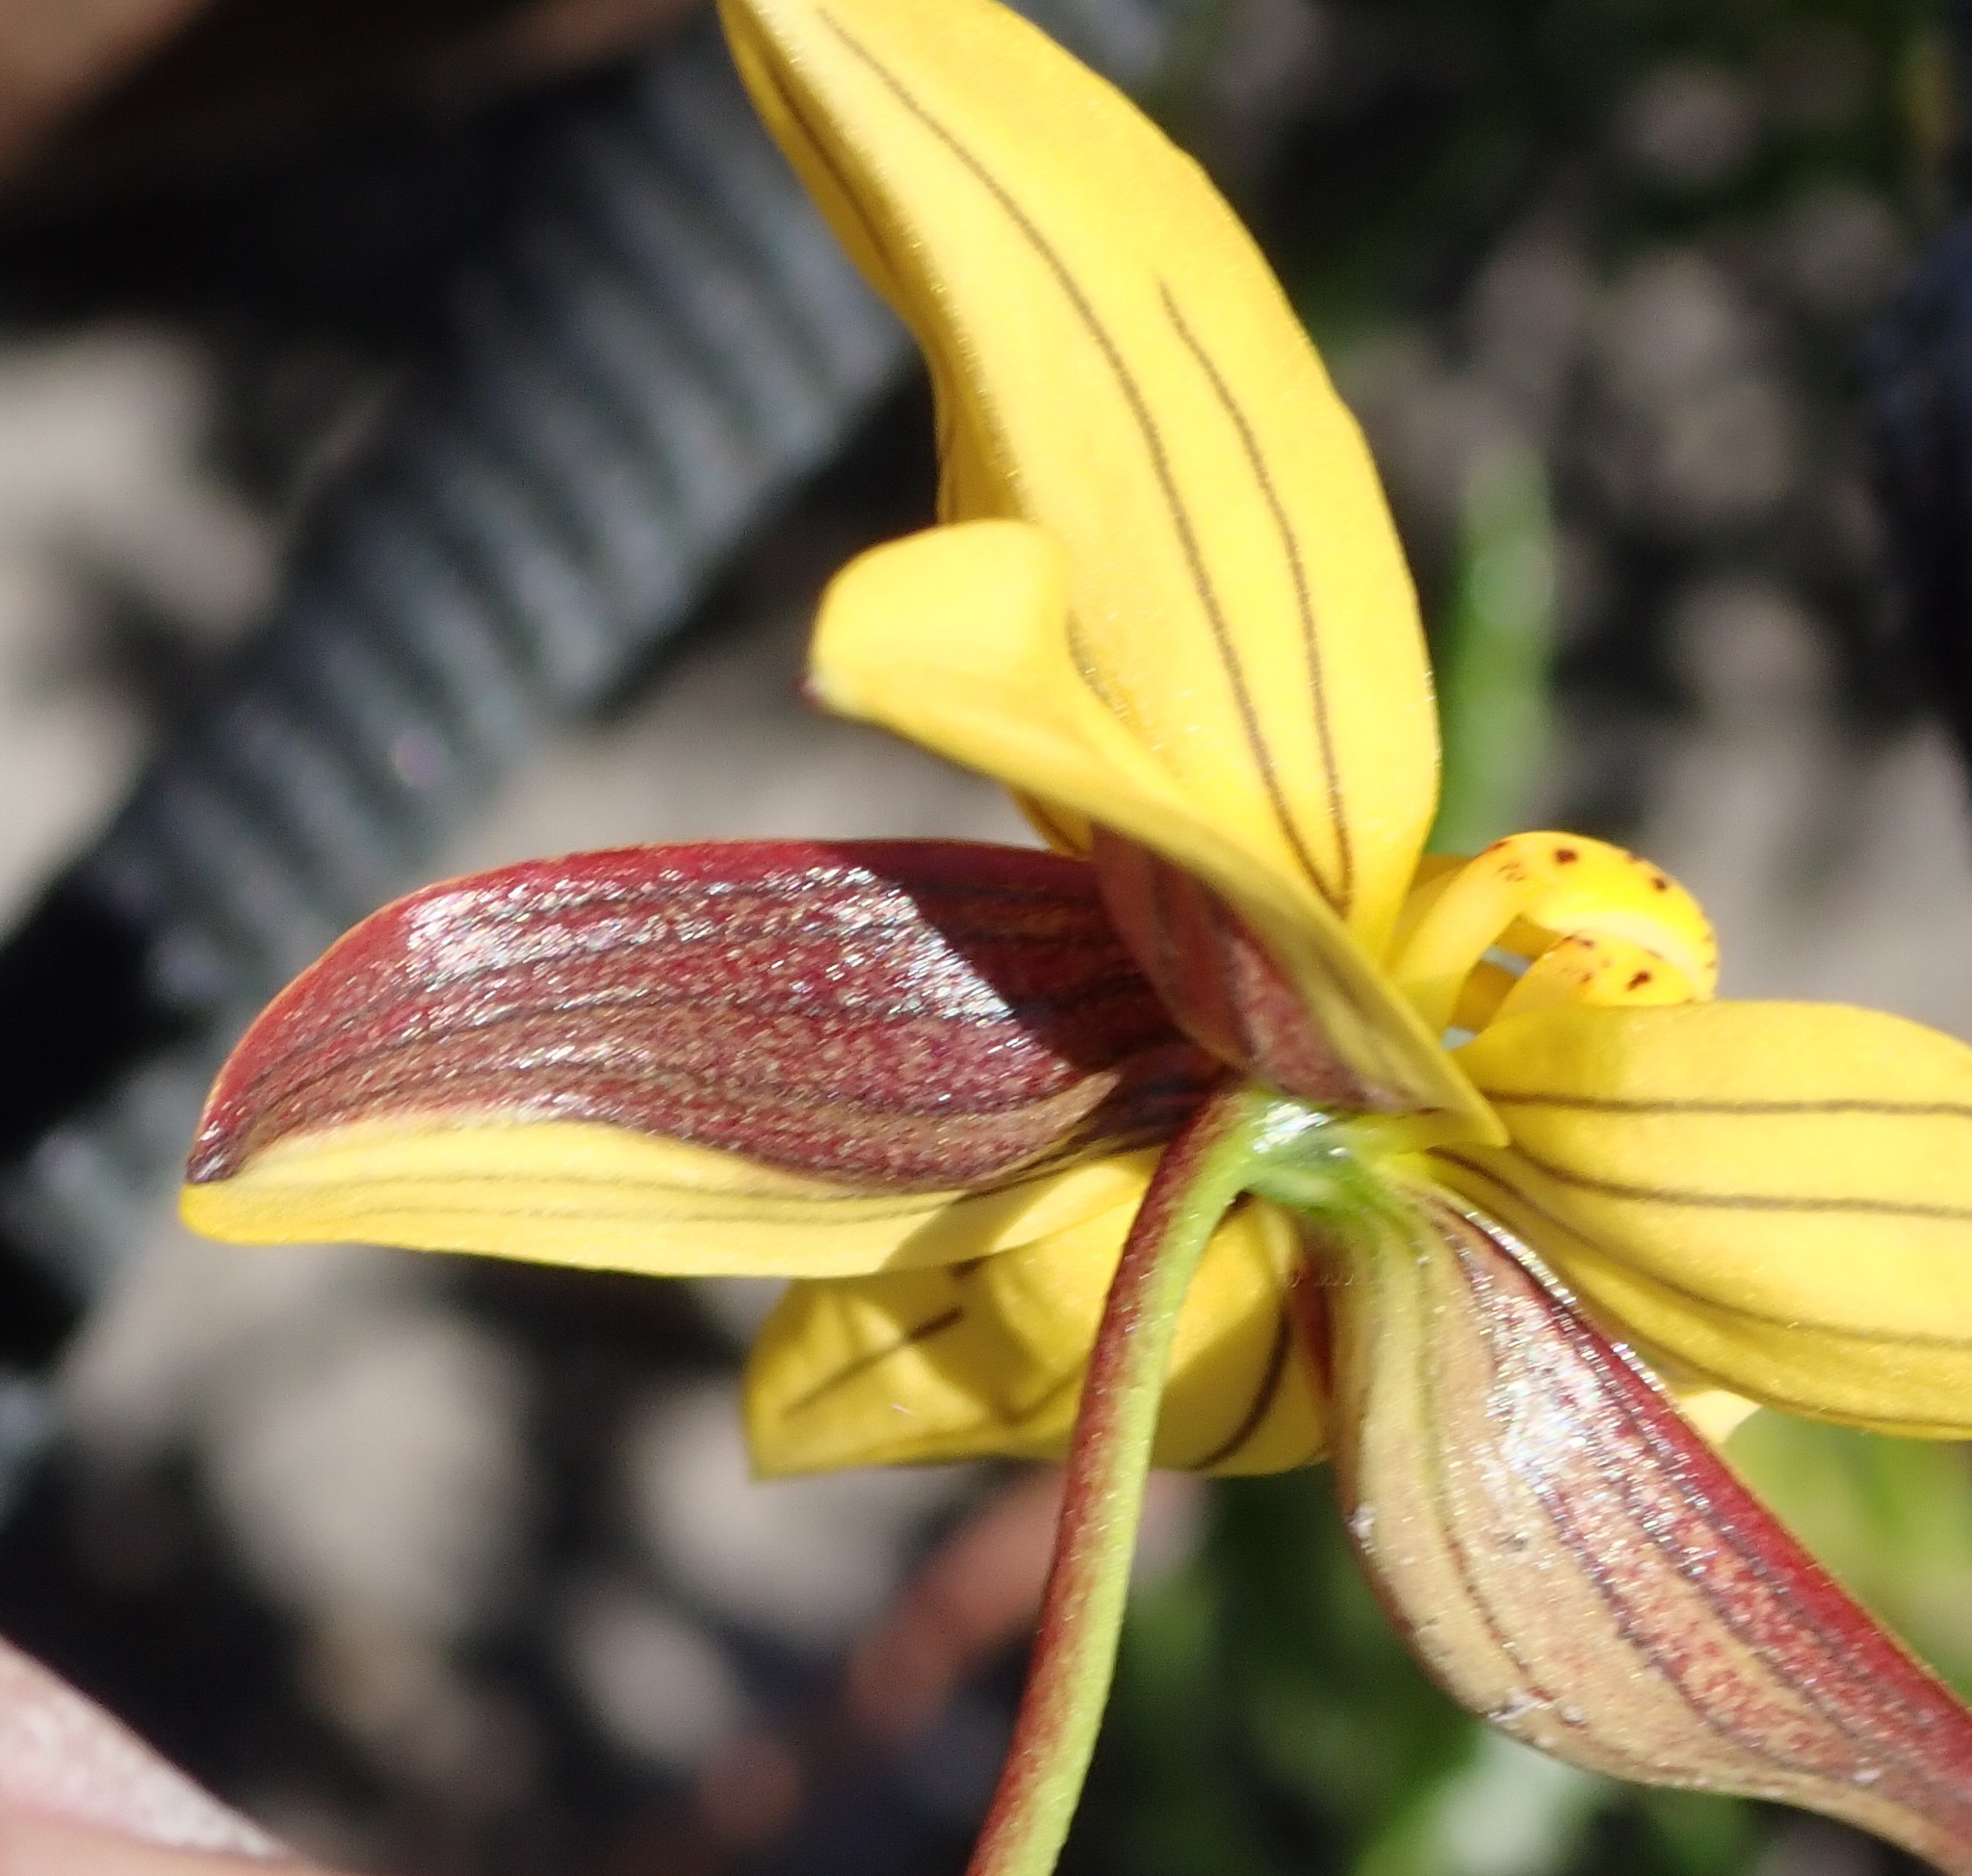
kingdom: Plantae
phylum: Tracheophyta
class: Liliopsida
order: Asparagales
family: Tecophilaeaceae
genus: Cyanella
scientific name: Cyanella lutea
